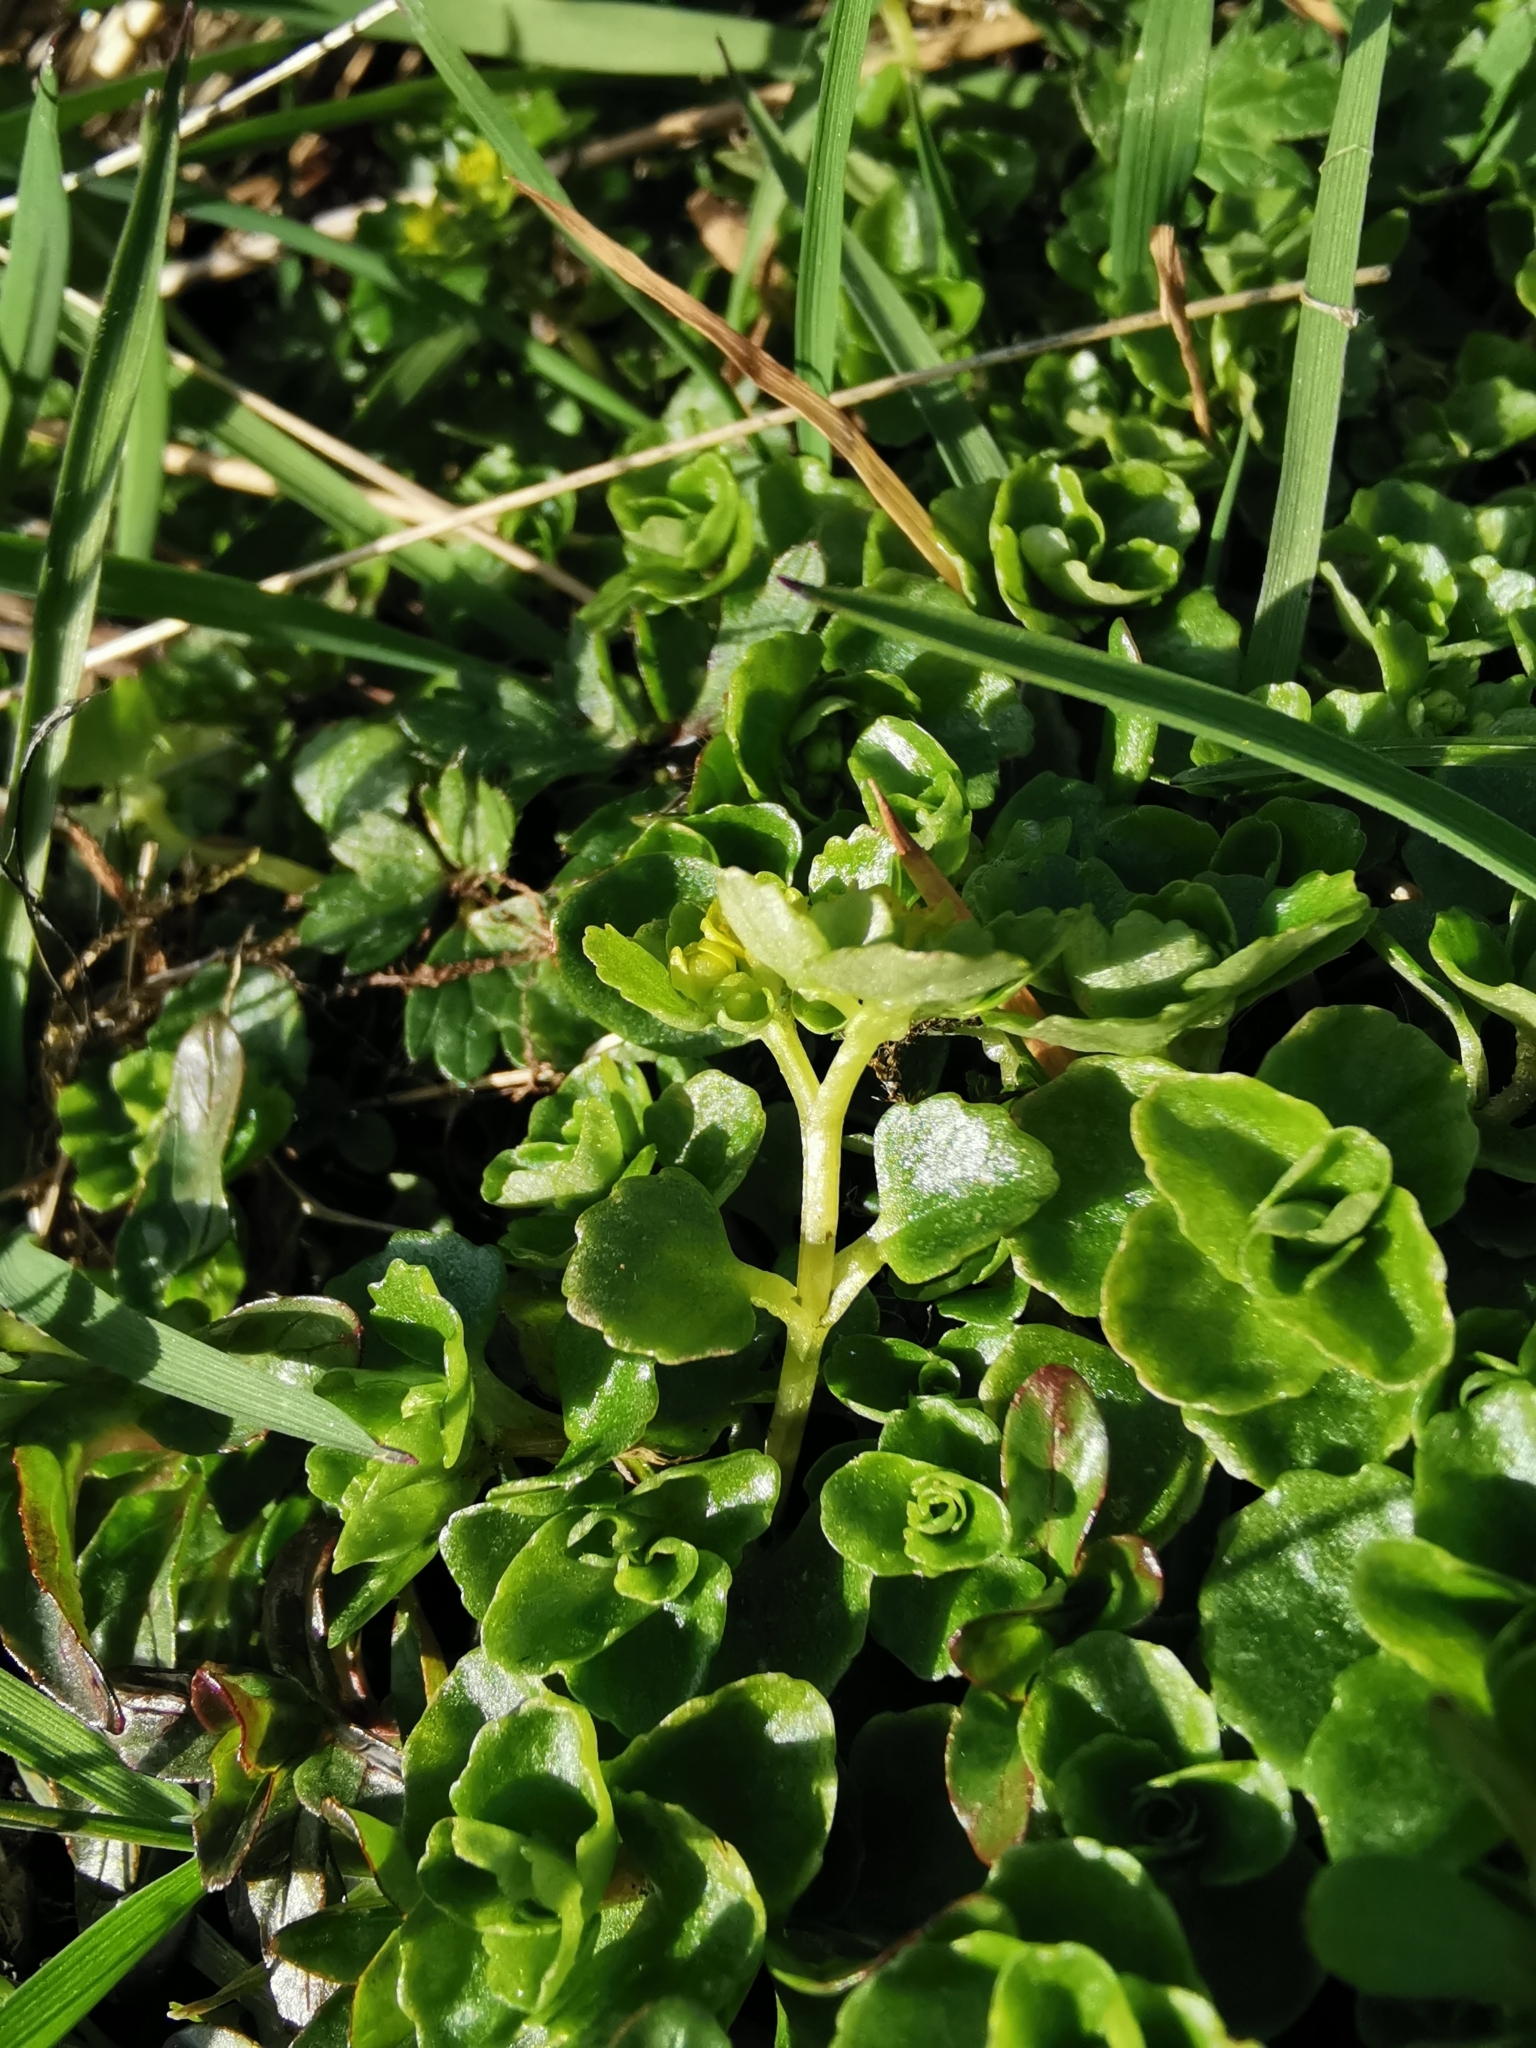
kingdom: Plantae
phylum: Tracheophyta
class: Magnoliopsida
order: Saxifragales
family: Saxifragaceae
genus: Chrysosplenium
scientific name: Chrysosplenium oppositifolium
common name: Opposite-leaved golden-saxifrage
